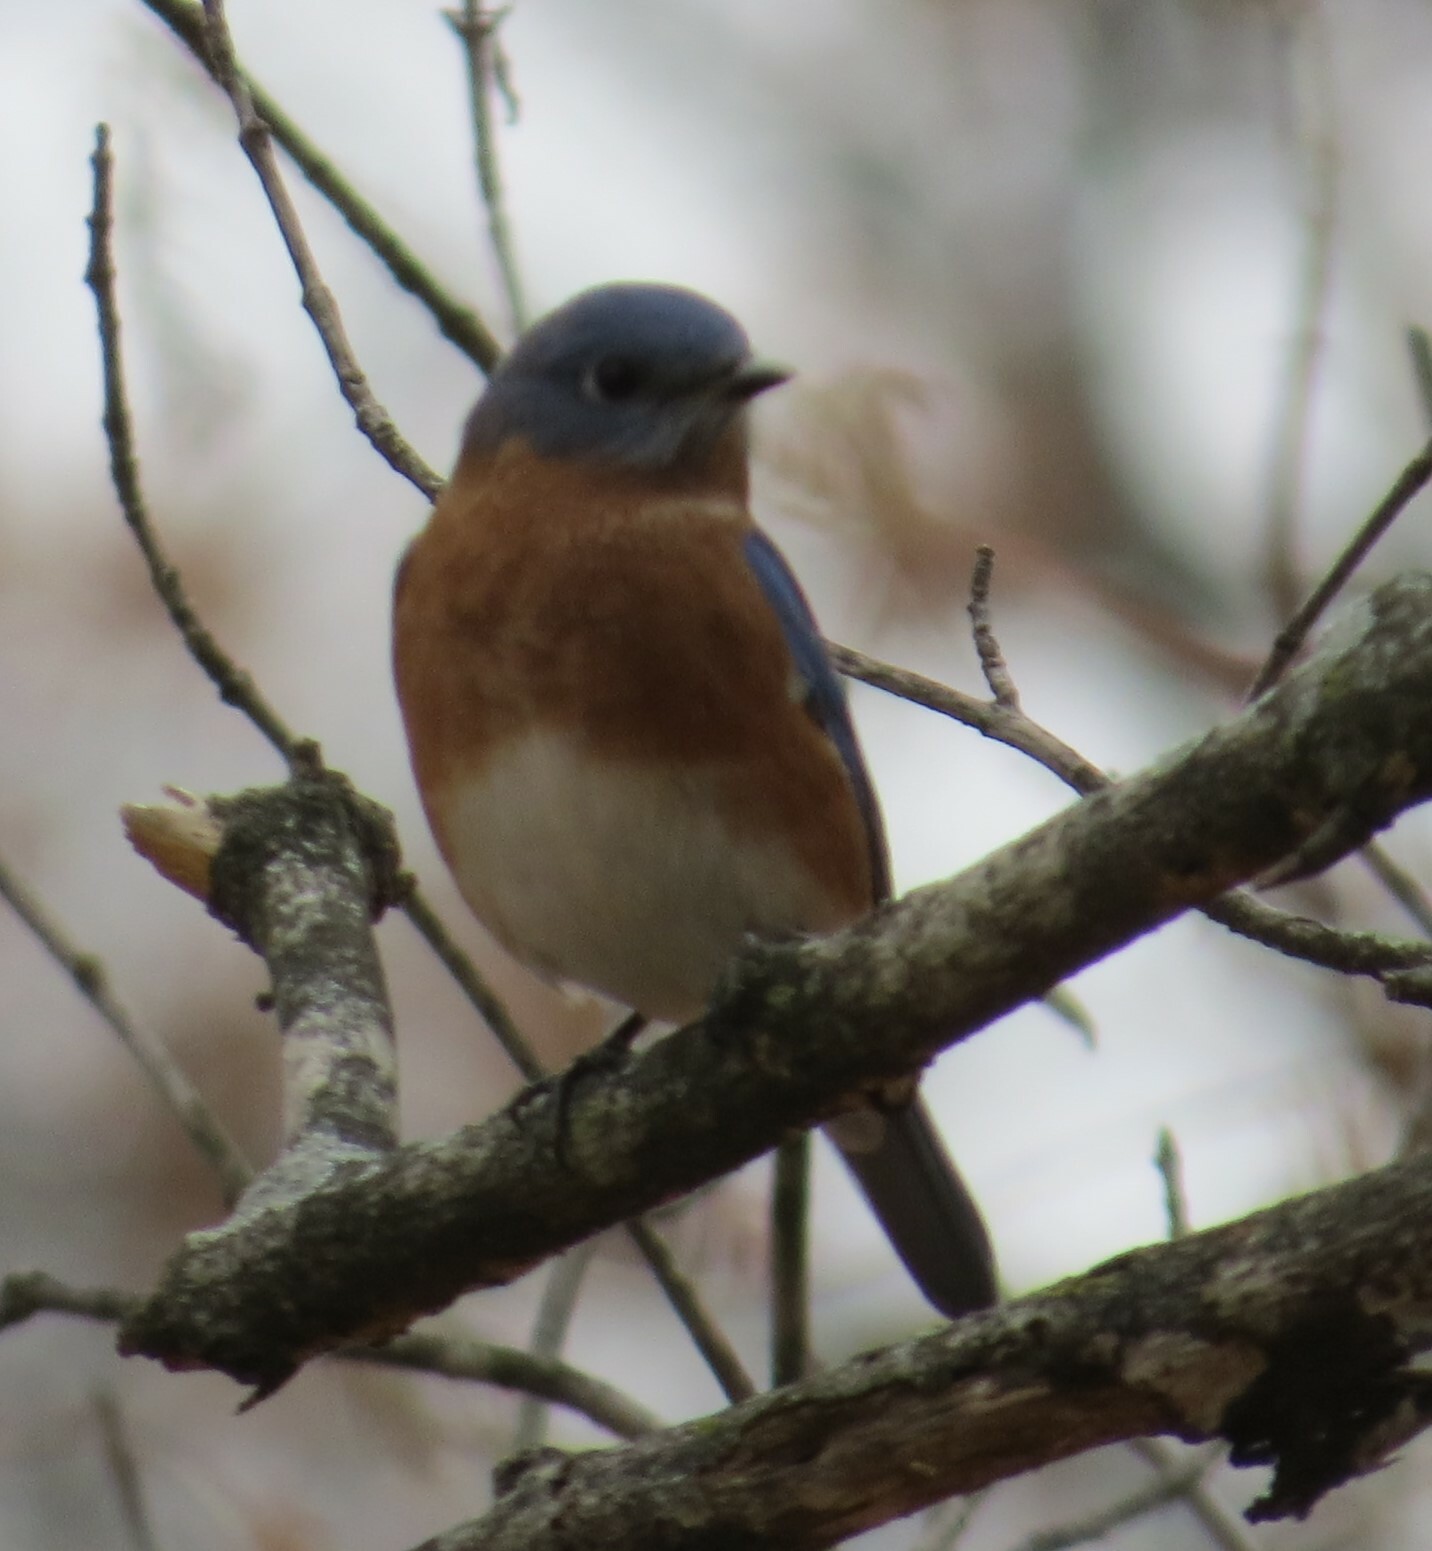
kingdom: Animalia
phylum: Chordata
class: Aves
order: Passeriformes
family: Turdidae
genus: Sialia
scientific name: Sialia sialis
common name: Eastern bluebird
